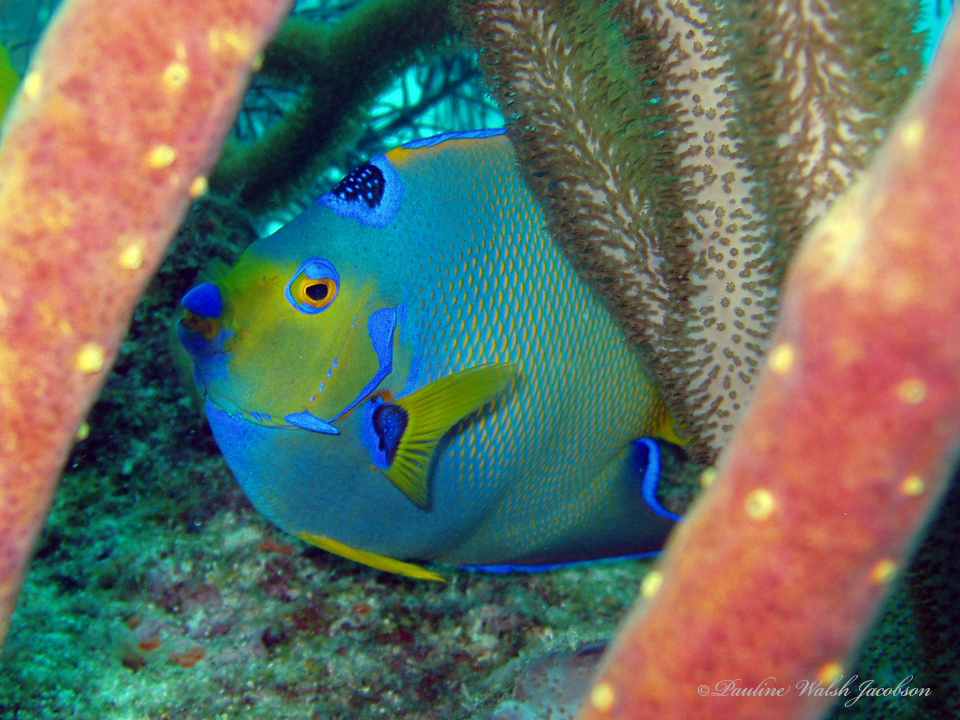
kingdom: Animalia
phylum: Chordata
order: Perciformes
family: Pomacanthidae
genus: Holacanthus
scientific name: Holacanthus ciliaris
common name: Queen angelfish
